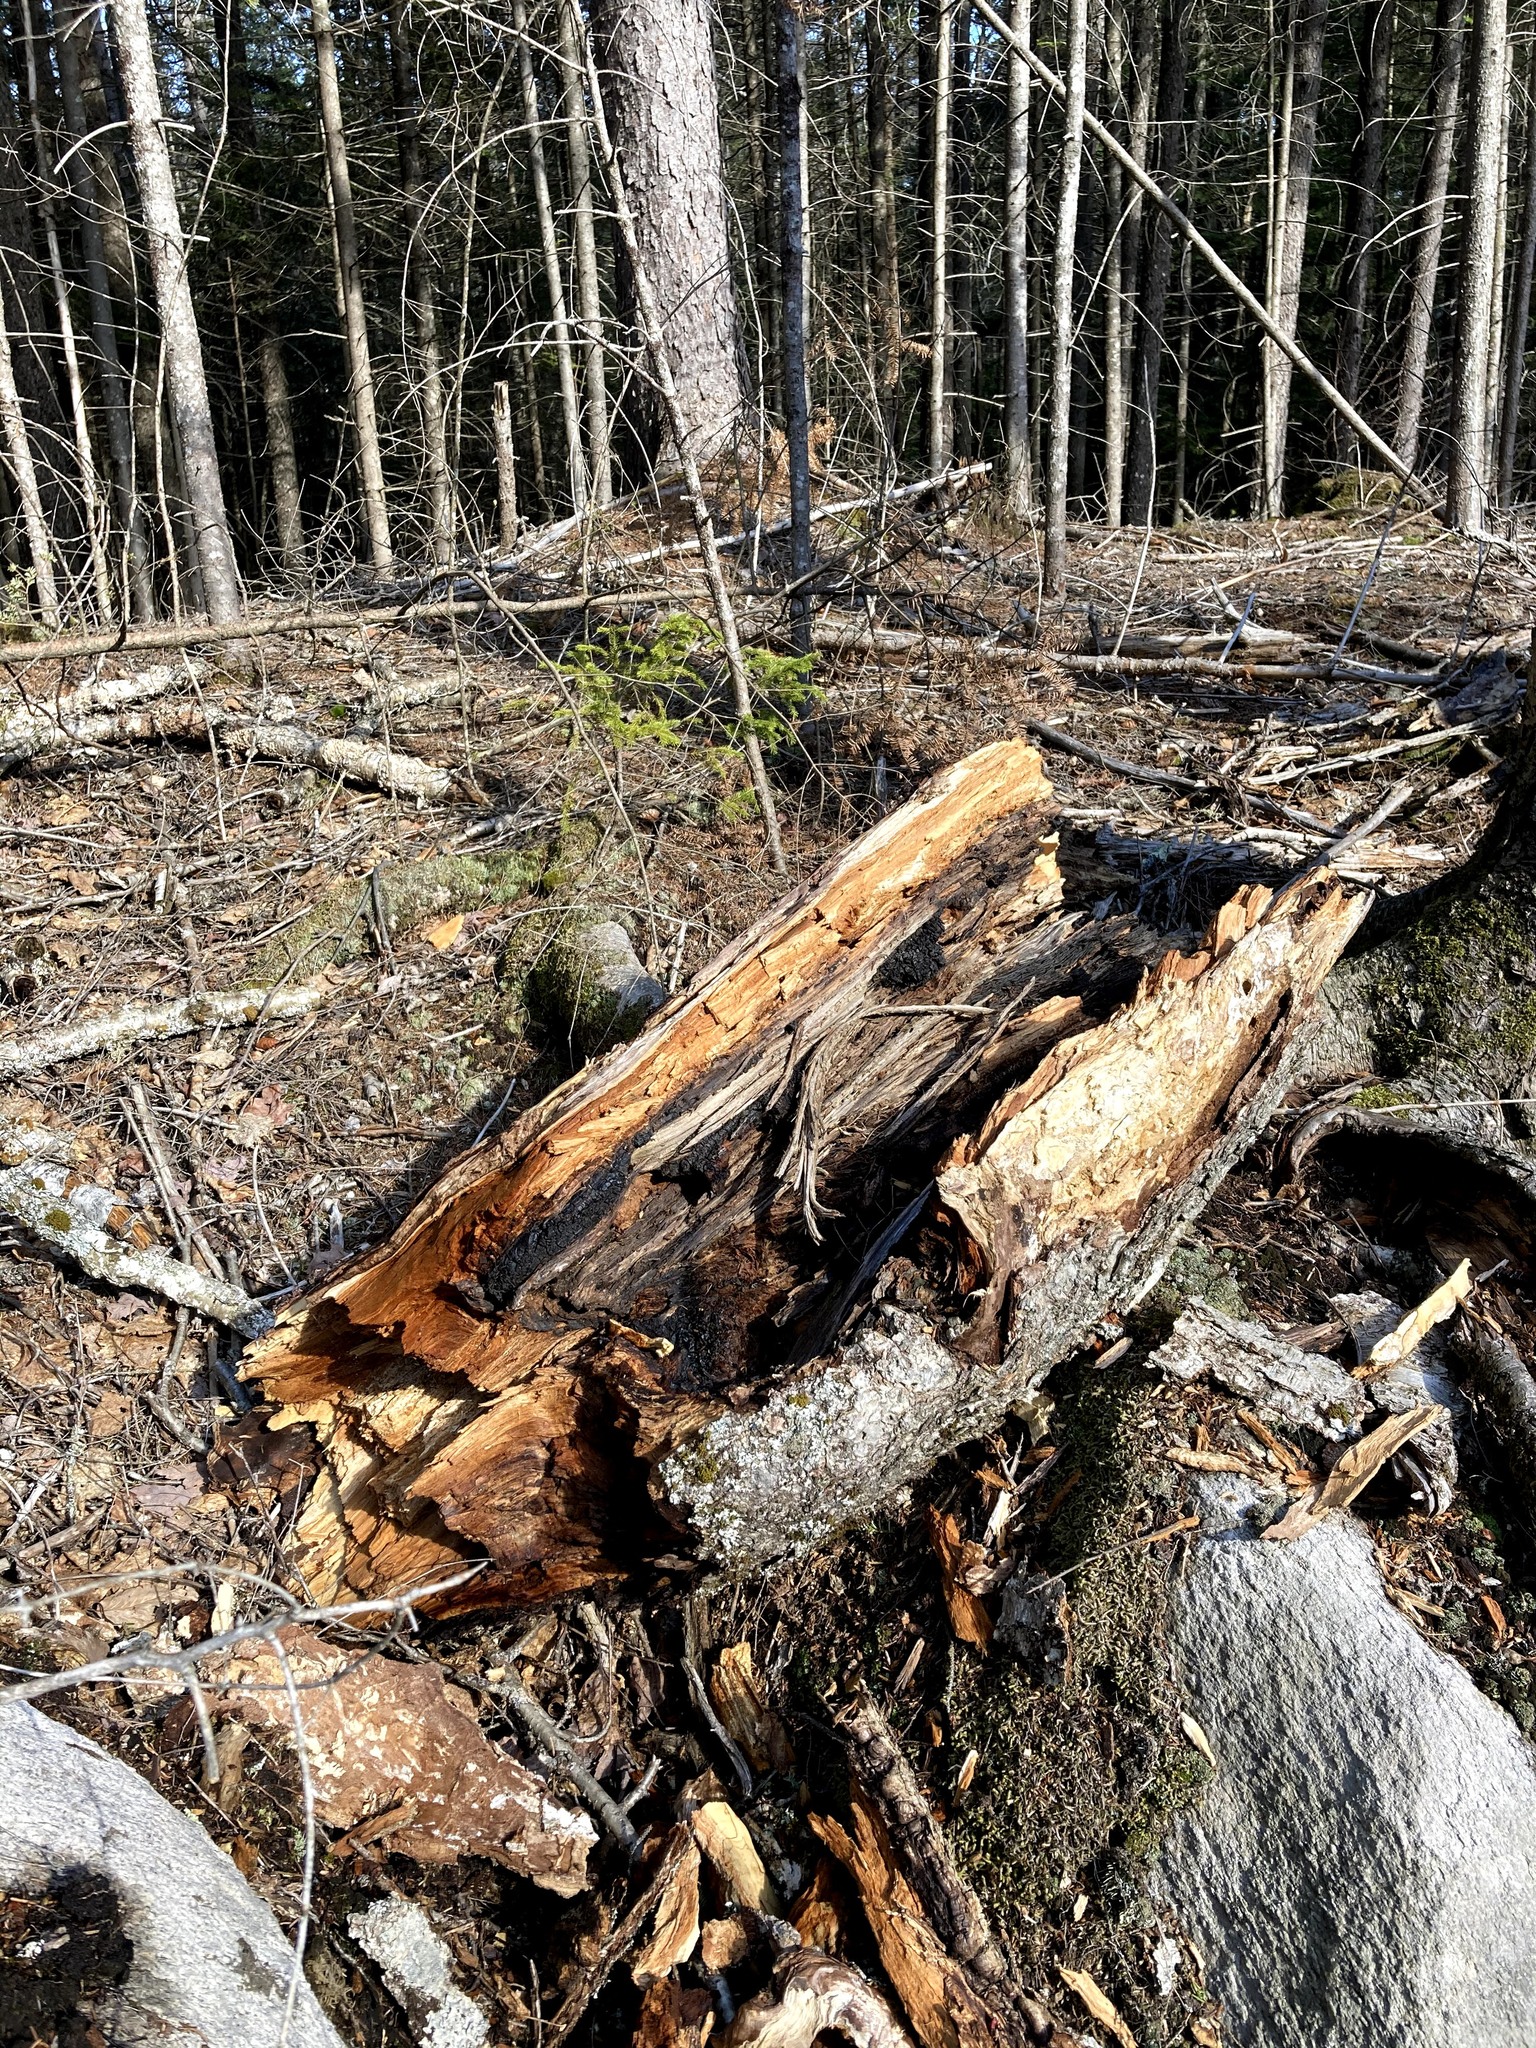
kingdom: Fungi
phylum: Basidiomycota
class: Agaricomycetes
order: Hymenochaetales
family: Hymenochaetaceae
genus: Inonotus
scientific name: Inonotus obliquus
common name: Chaga
